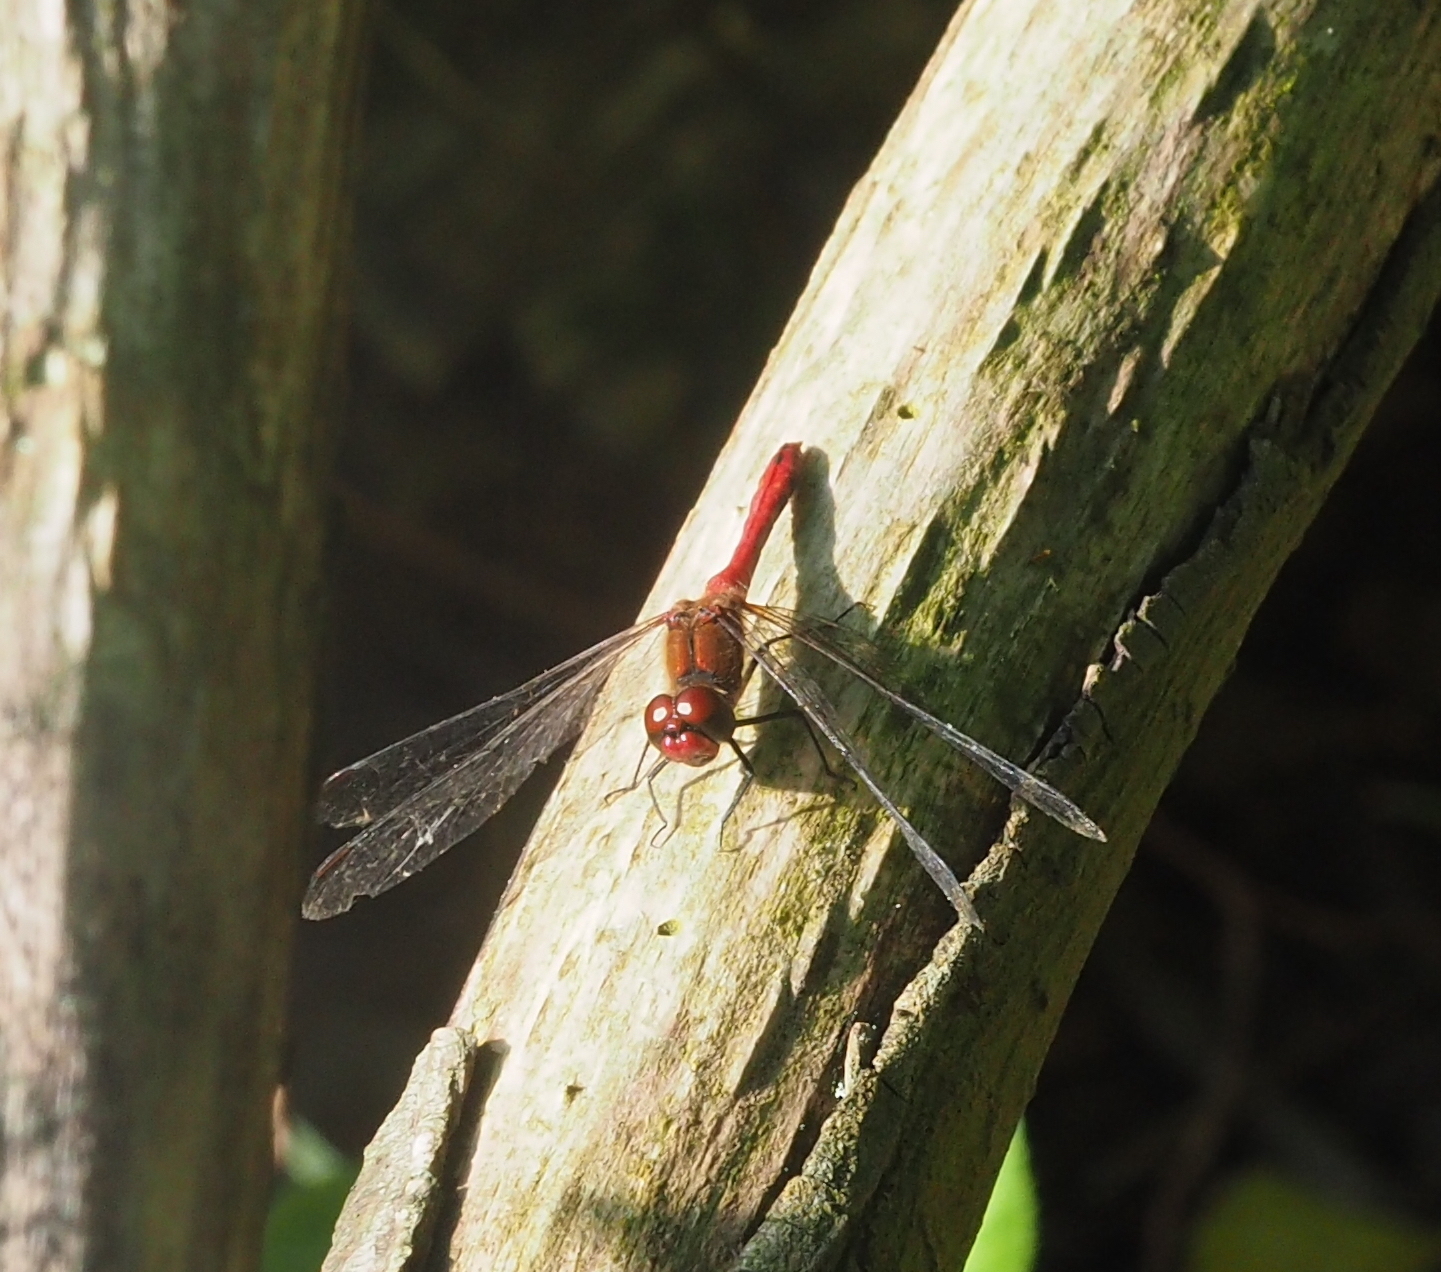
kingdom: Animalia
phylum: Arthropoda
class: Insecta
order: Odonata
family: Libellulidae
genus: Sympetrum
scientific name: Sympetrum sanguineum
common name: Ruddy darter
